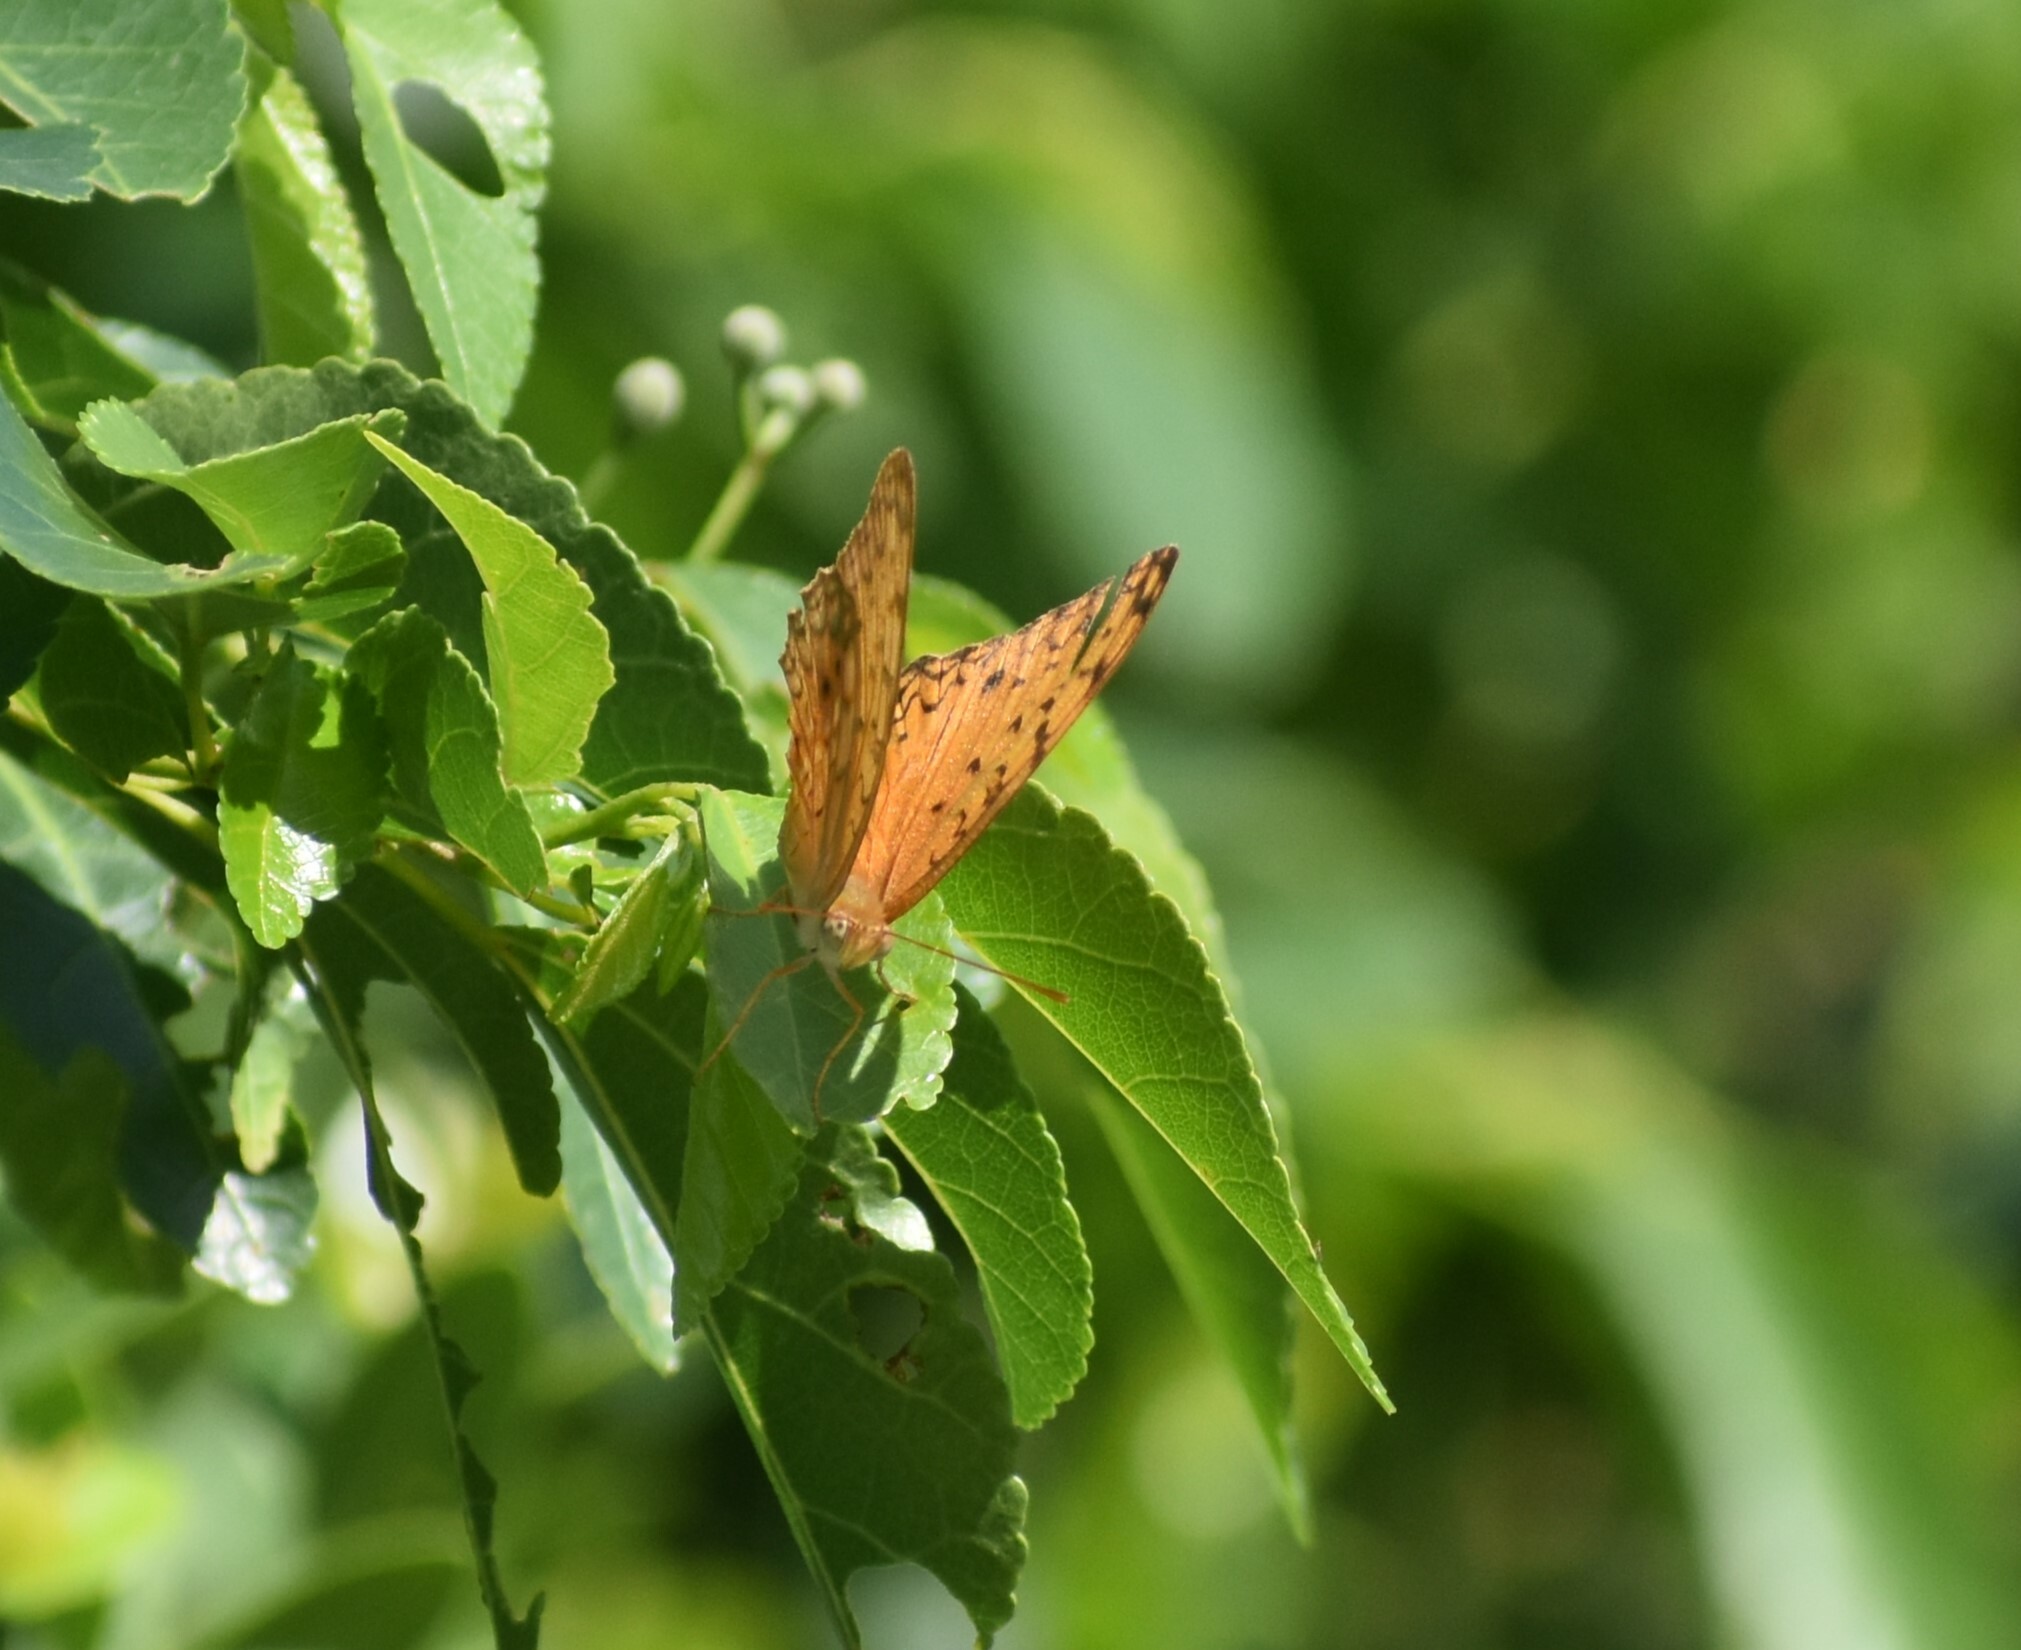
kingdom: Animalia
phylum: Arthropoda
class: Insecta
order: Lepidoptera
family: Nymphalidae
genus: Phalanta
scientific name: Phalanta phalantha
